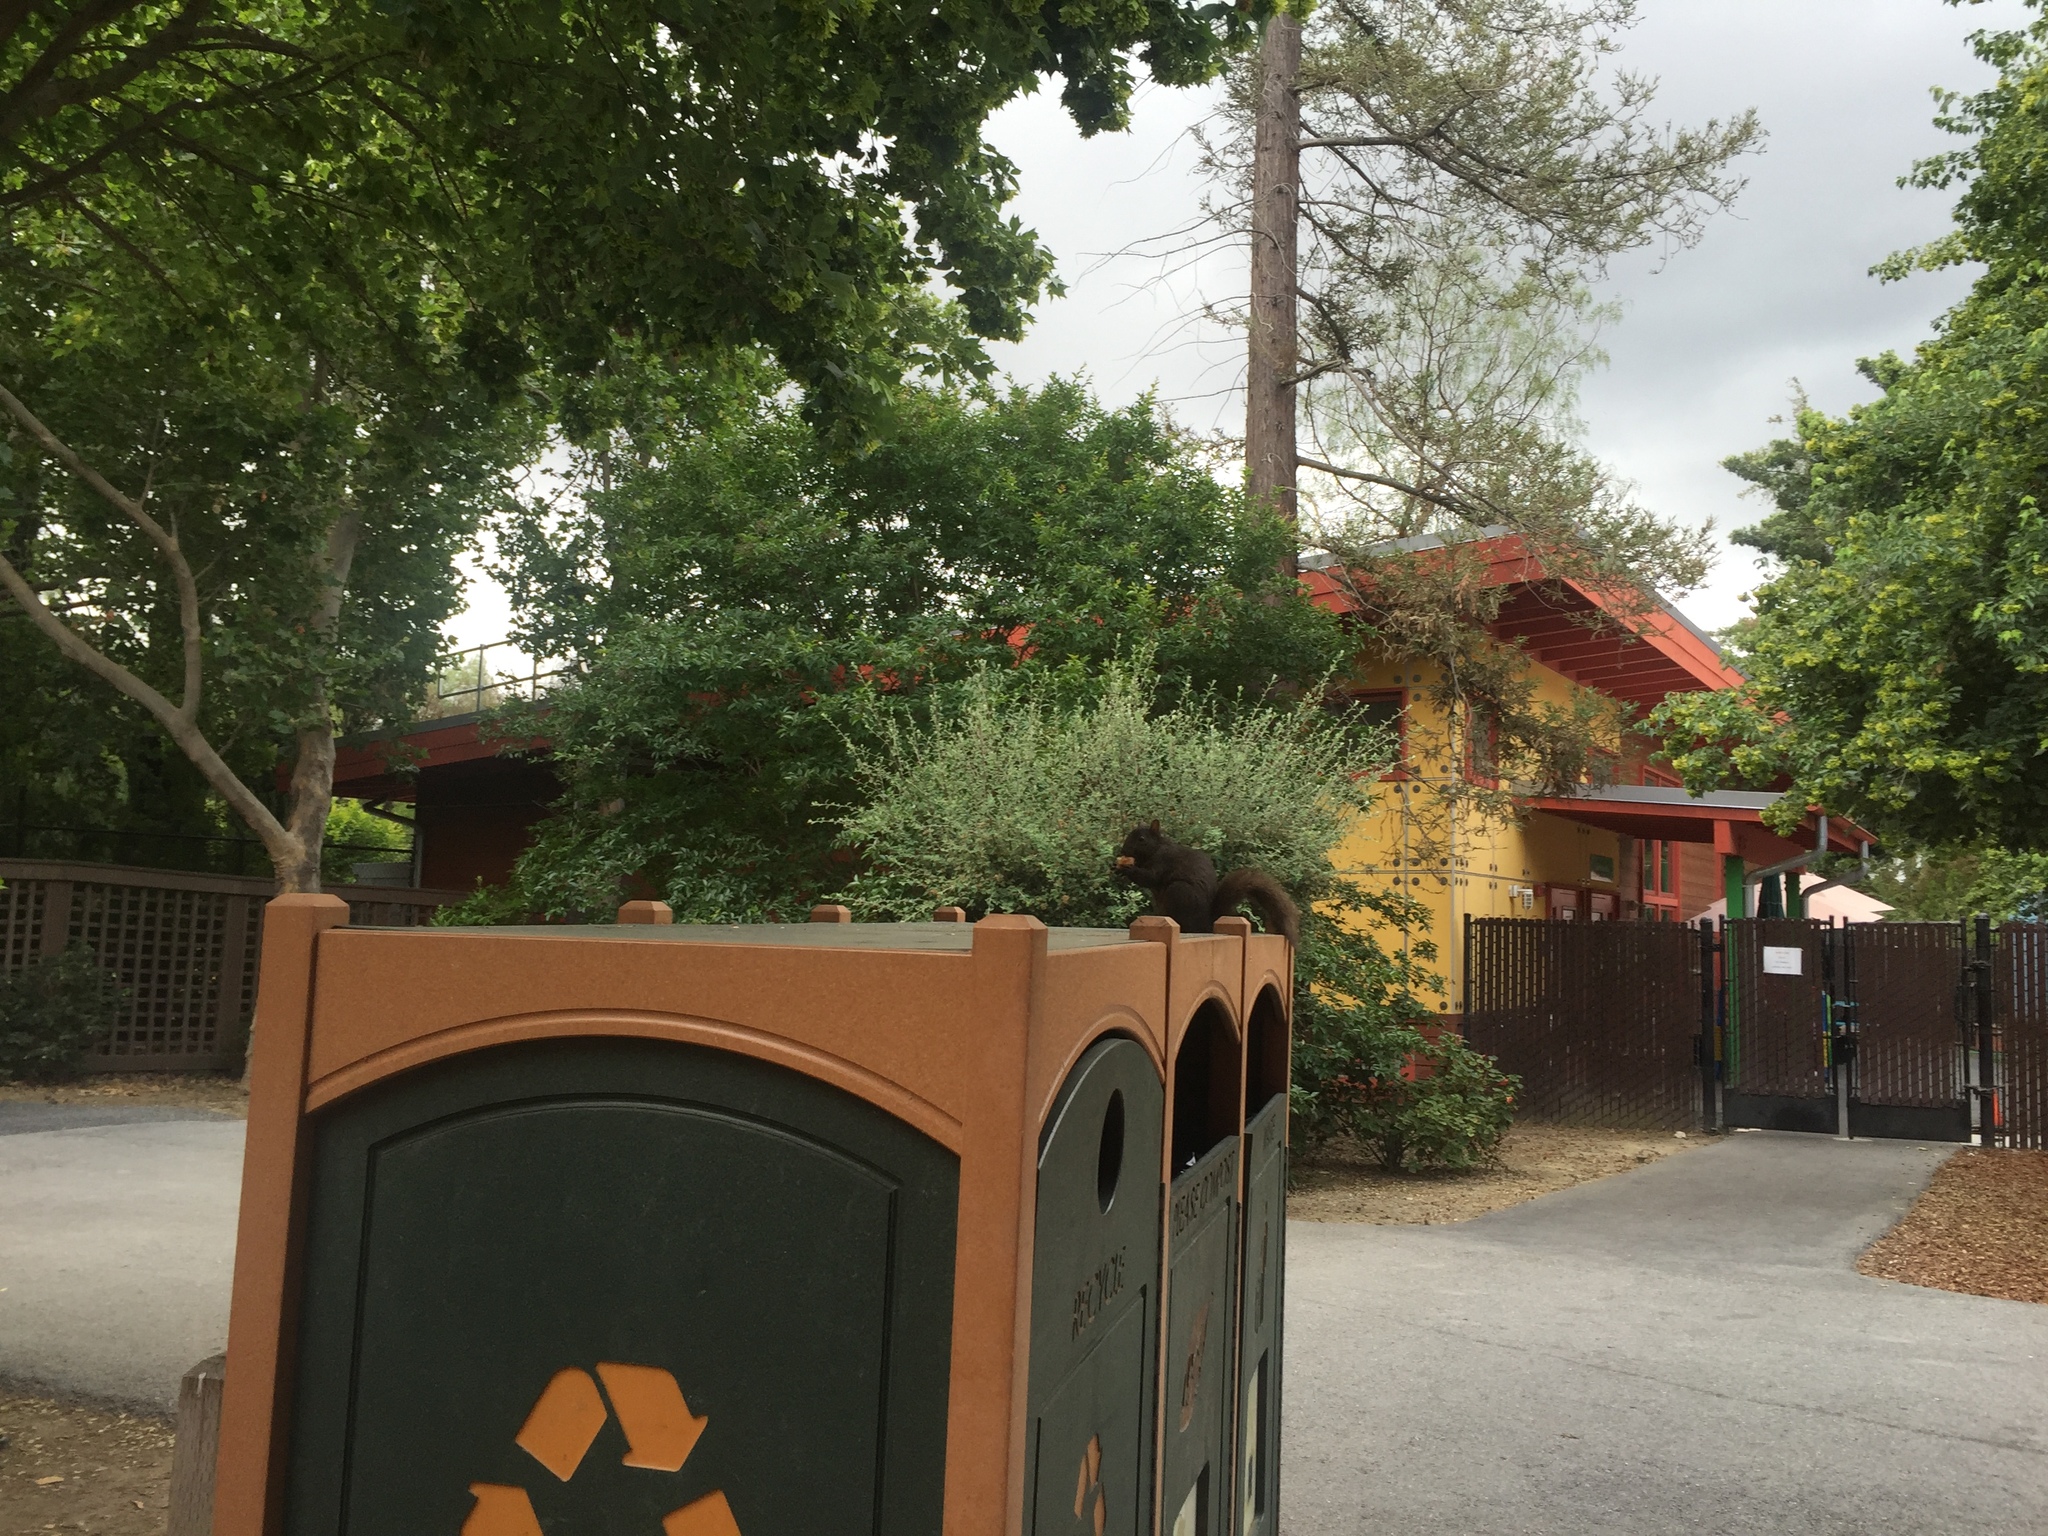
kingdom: Animalia
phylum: Chordata
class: Mammalia
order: Rodentia
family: Sciuridae
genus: Sciurus
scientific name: Sciurus carolinensis
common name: Eastern gray squirrel
